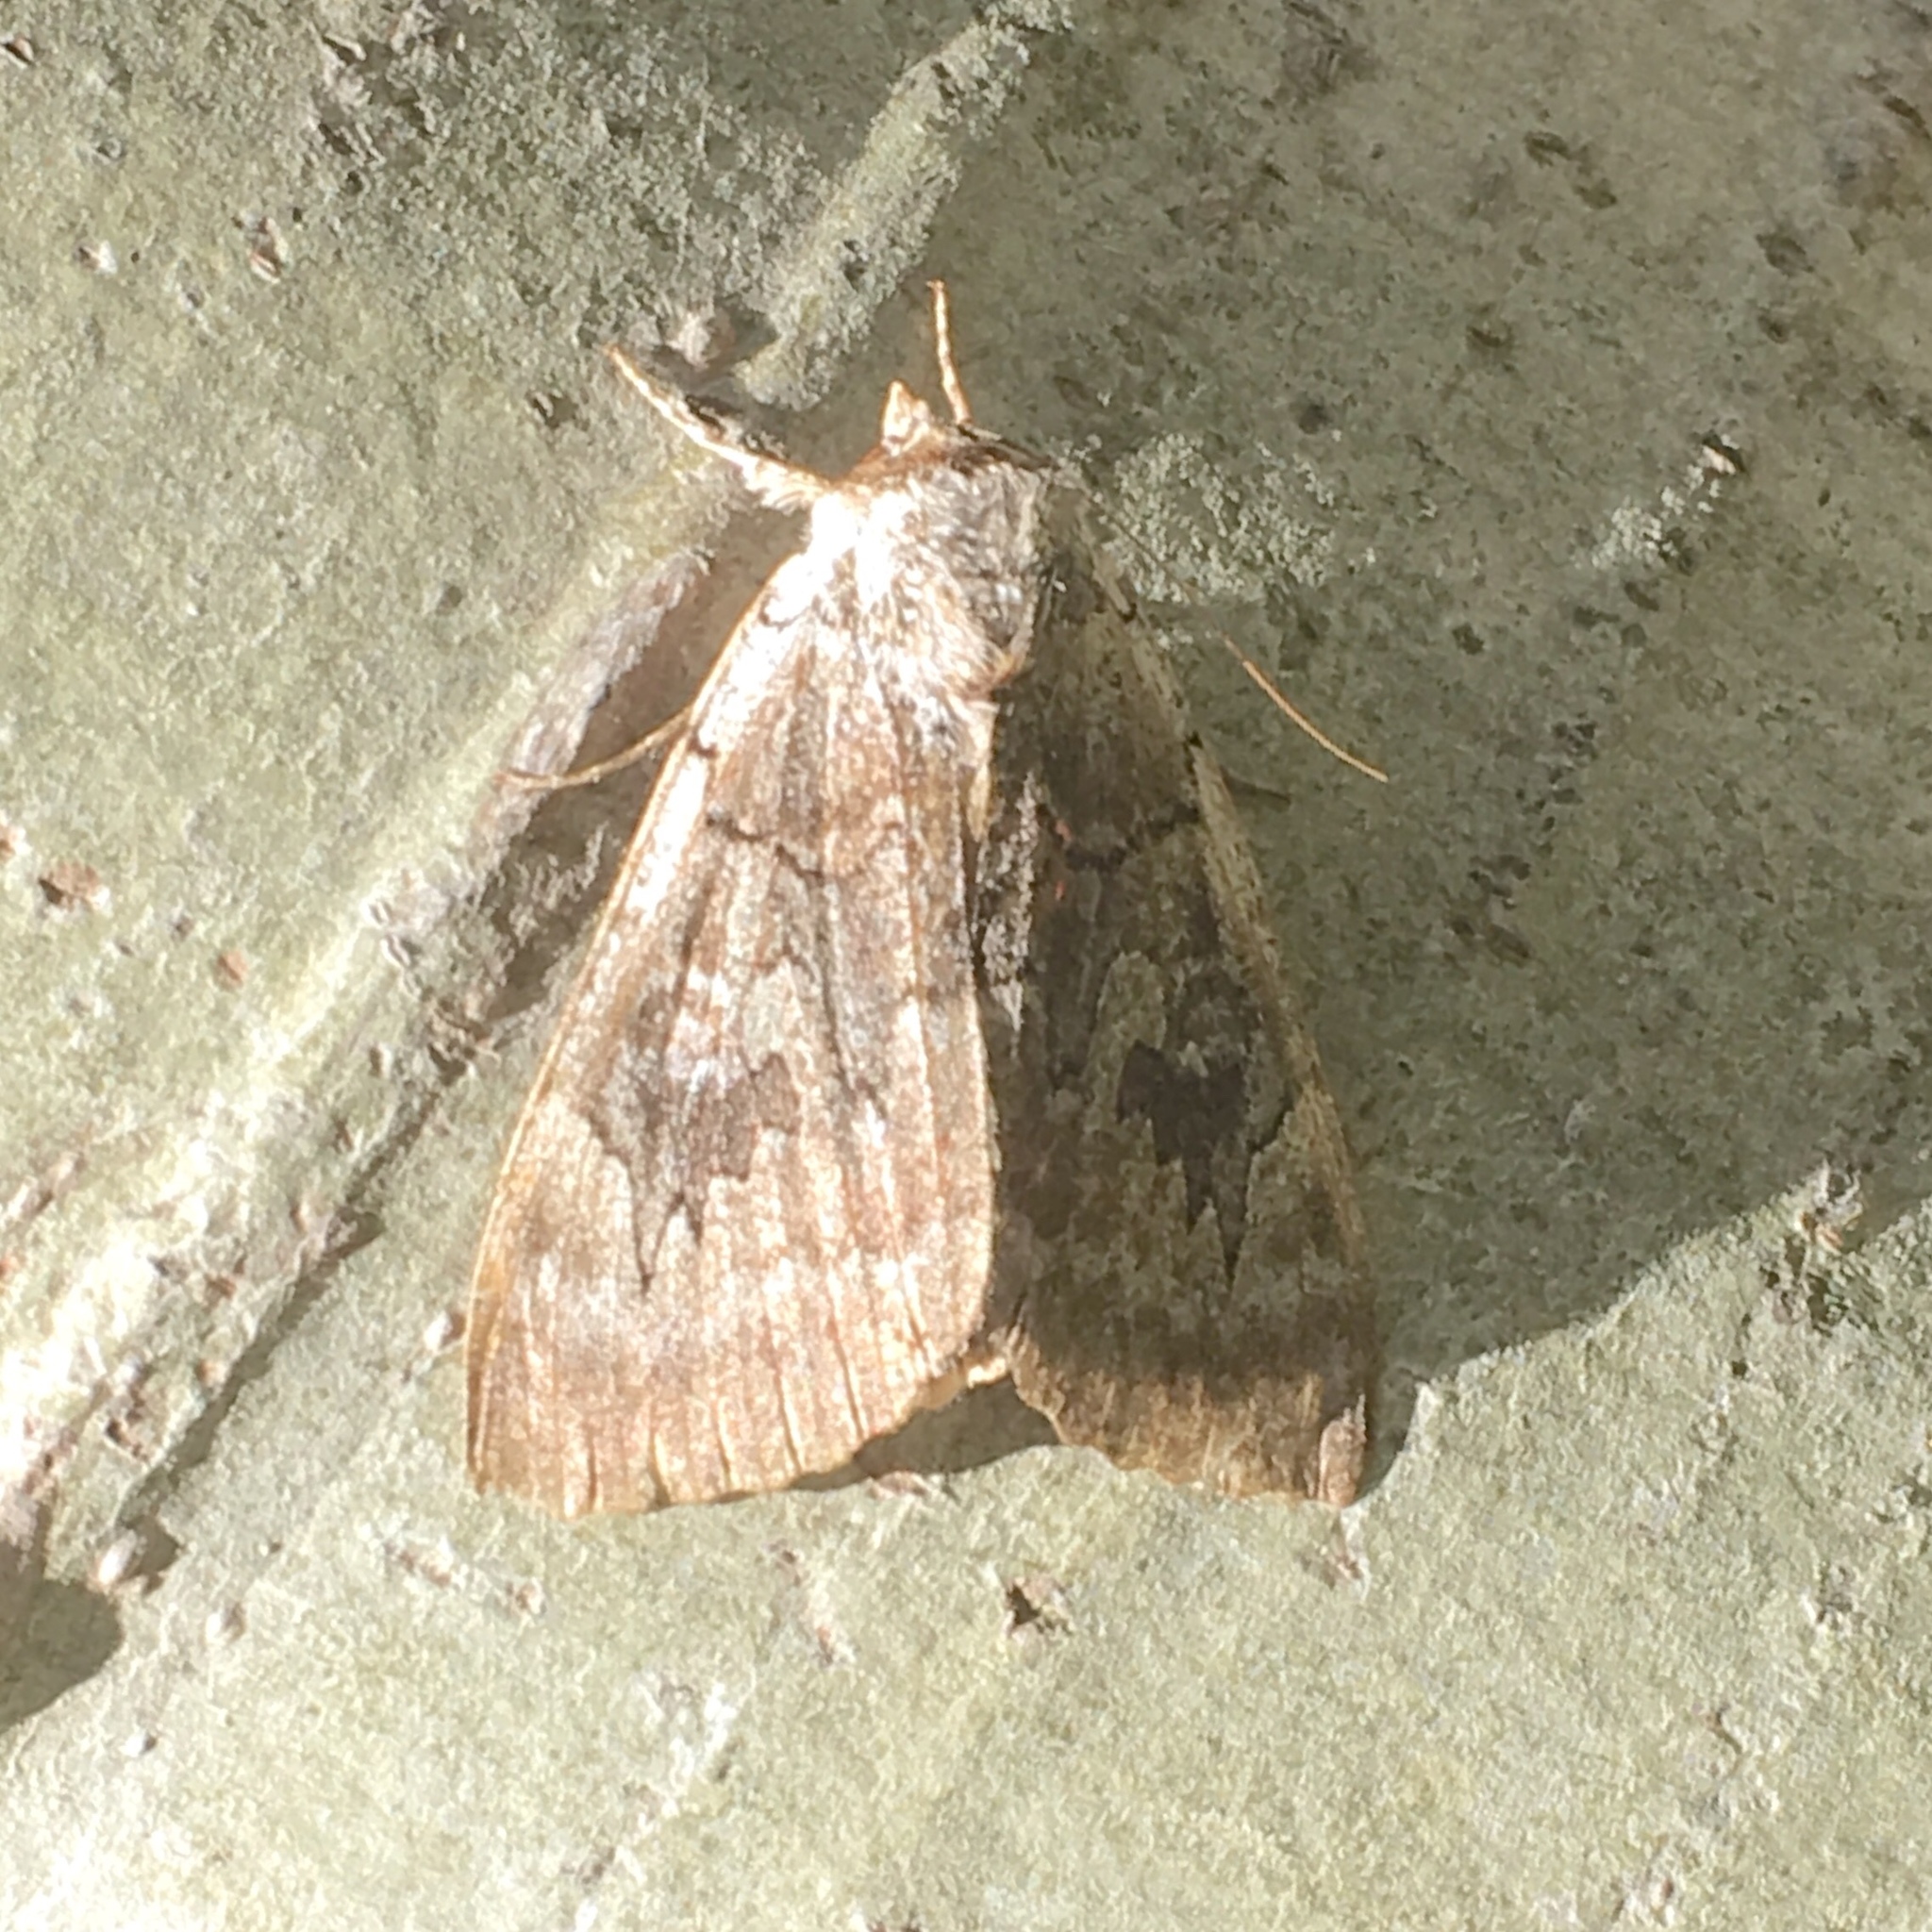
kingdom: Animalia
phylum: Arthropoda
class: Insecta
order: Lepidoptera
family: Erebidae
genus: Catocala
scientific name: Catocala concumbens
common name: Pink underwing
